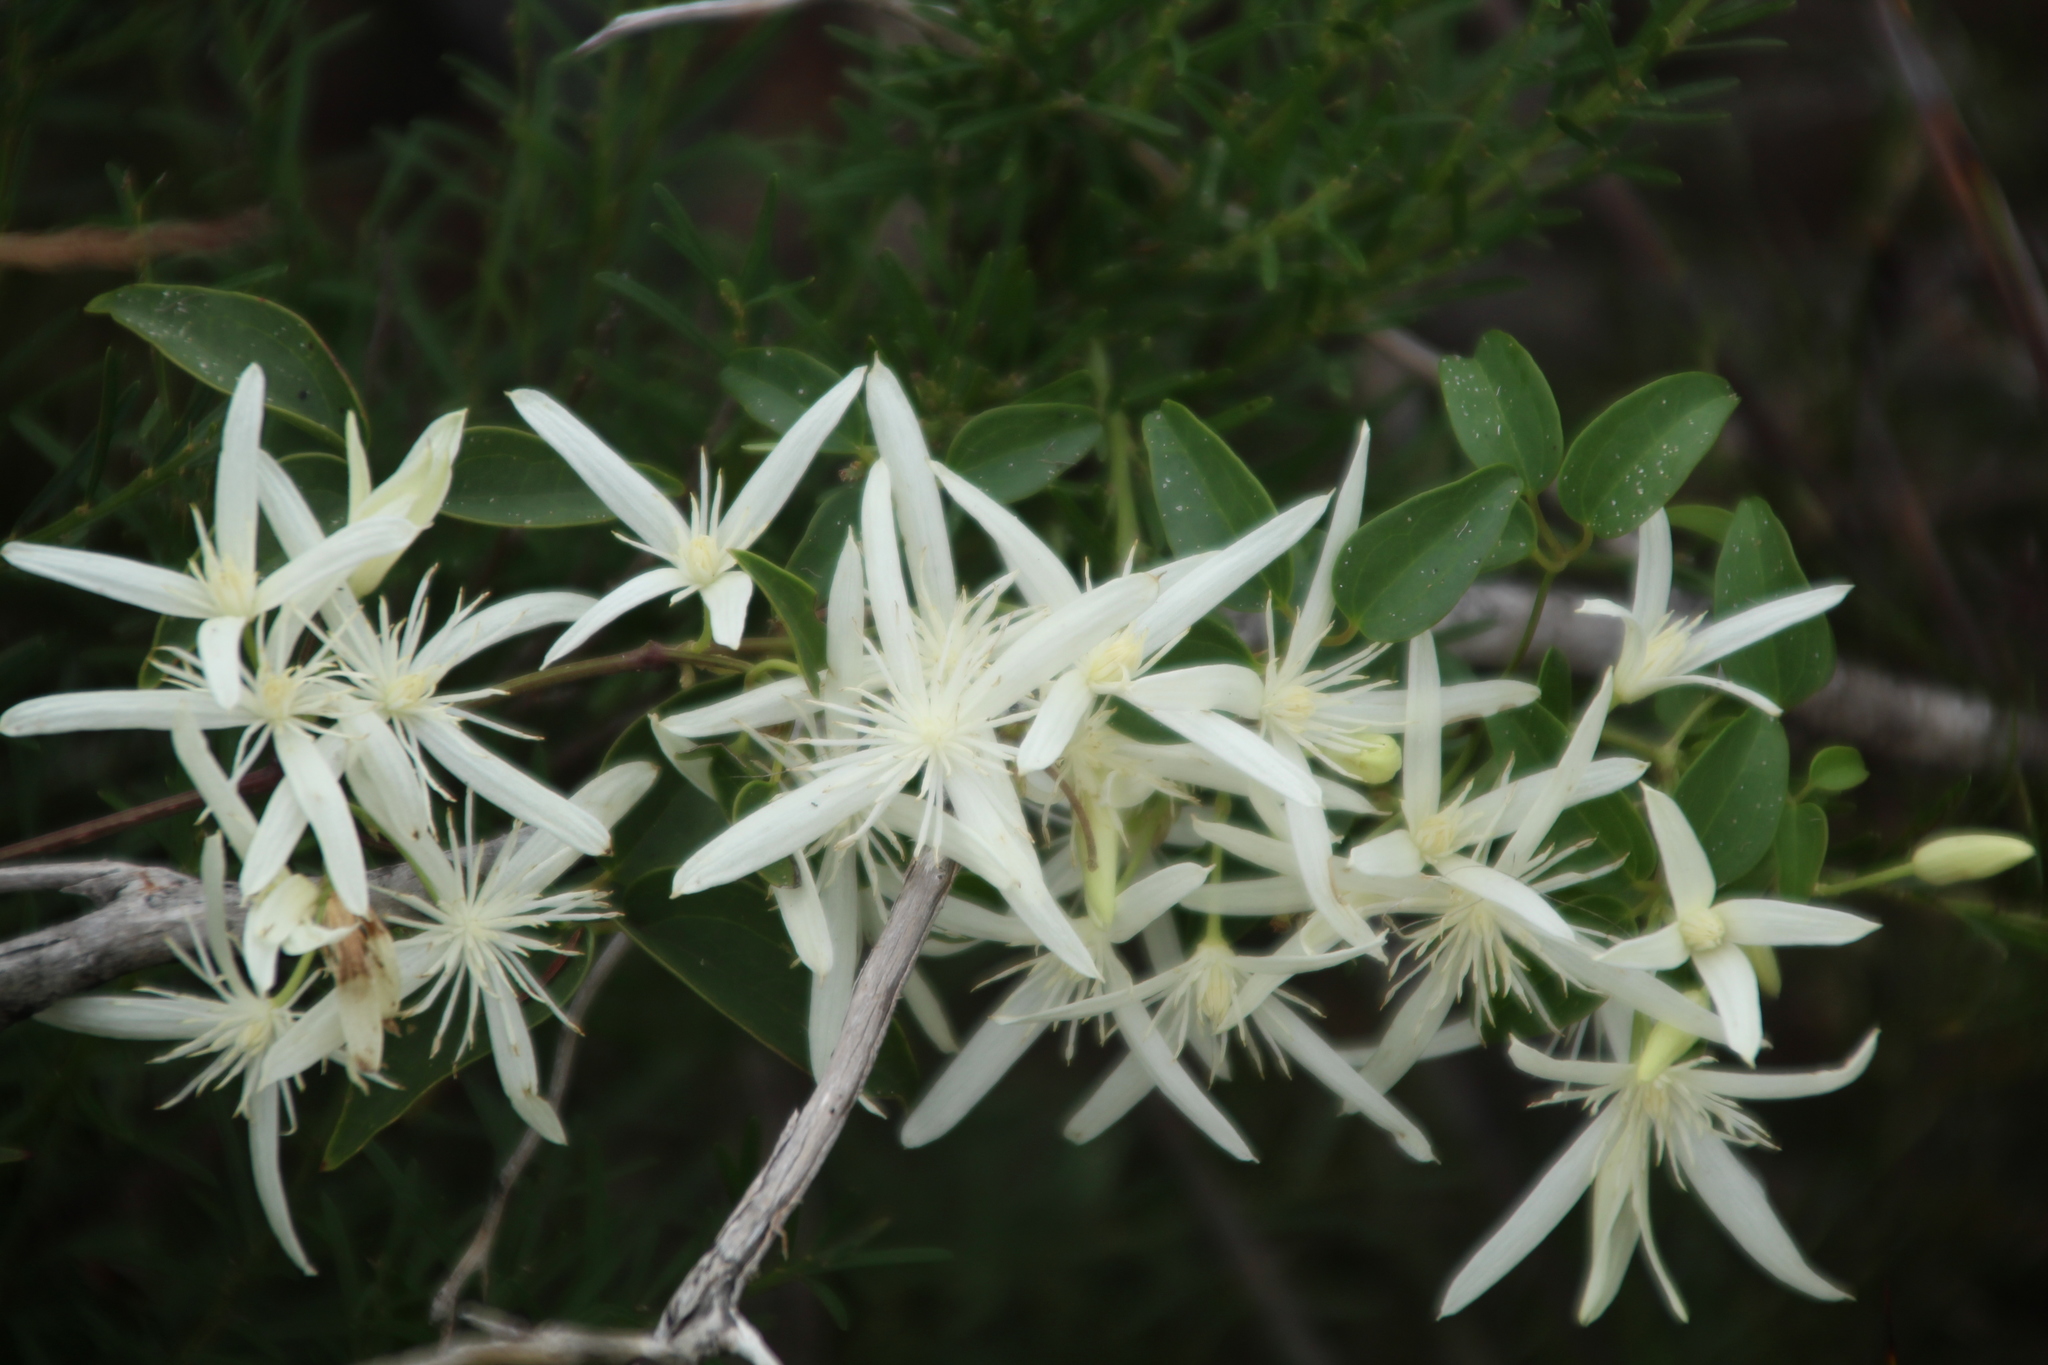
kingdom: Plantae
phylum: Tracheophyta
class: Magnoliopsida
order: Ranunculales
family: Ranunculaceae
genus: Clematis
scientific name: Clematis pubescens
